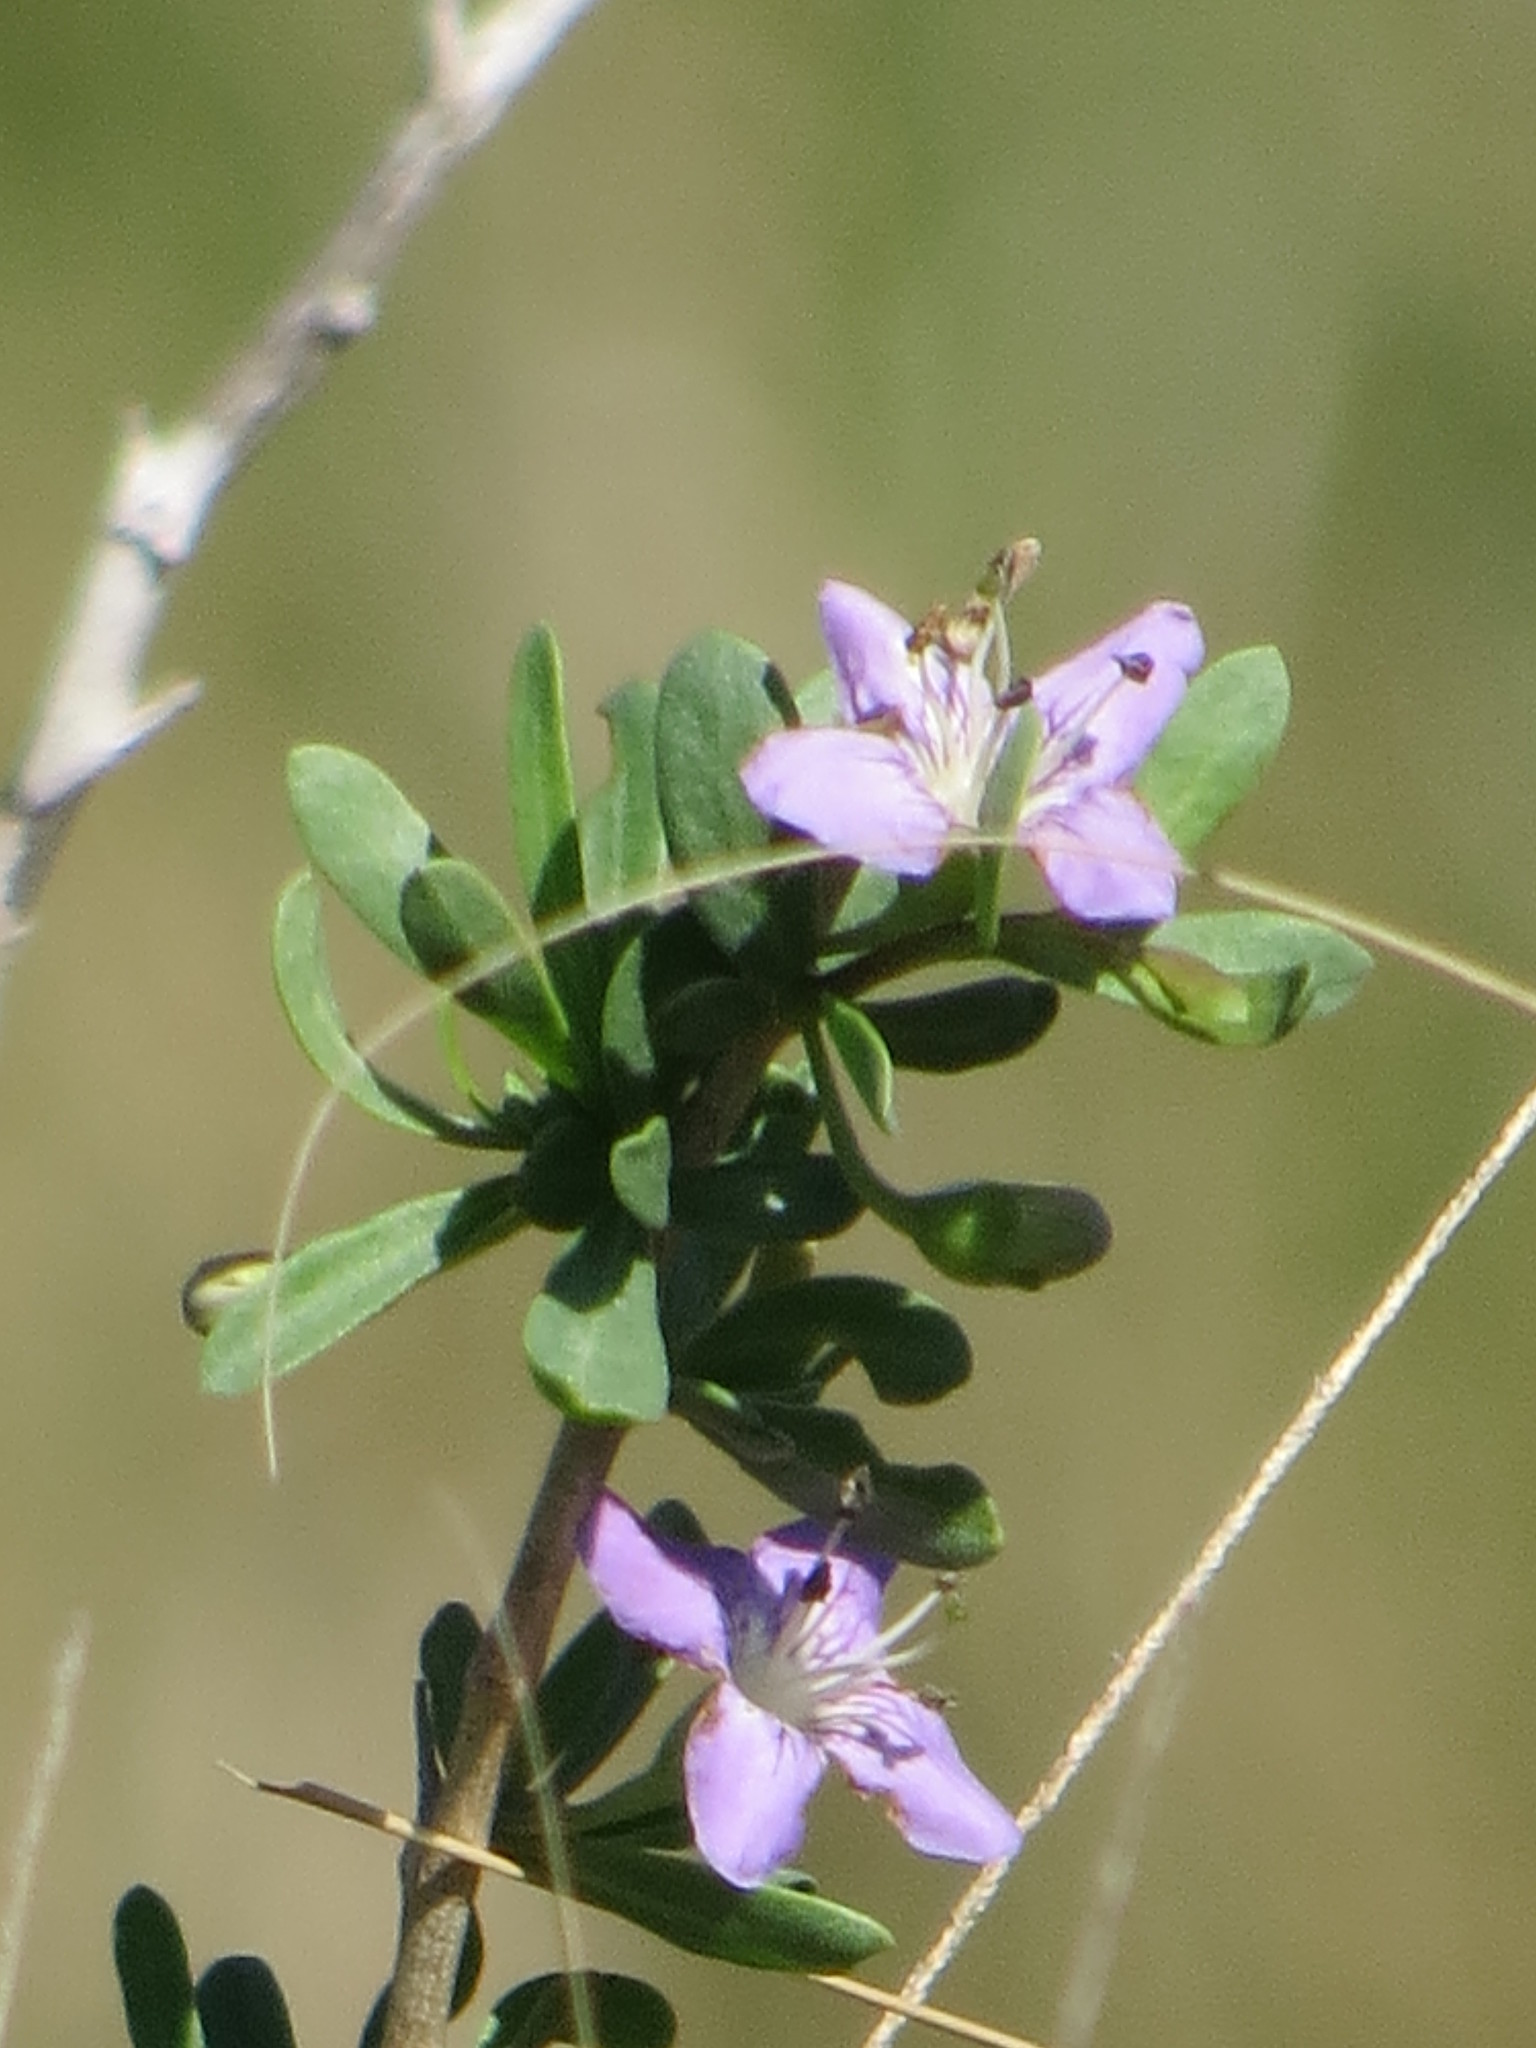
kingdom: Plantae
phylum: Tracheophyta
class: Magnoliopsida
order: Solanales
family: Solanaceae
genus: Lycium
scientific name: Lycium carolinianum
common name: Christmasberry
